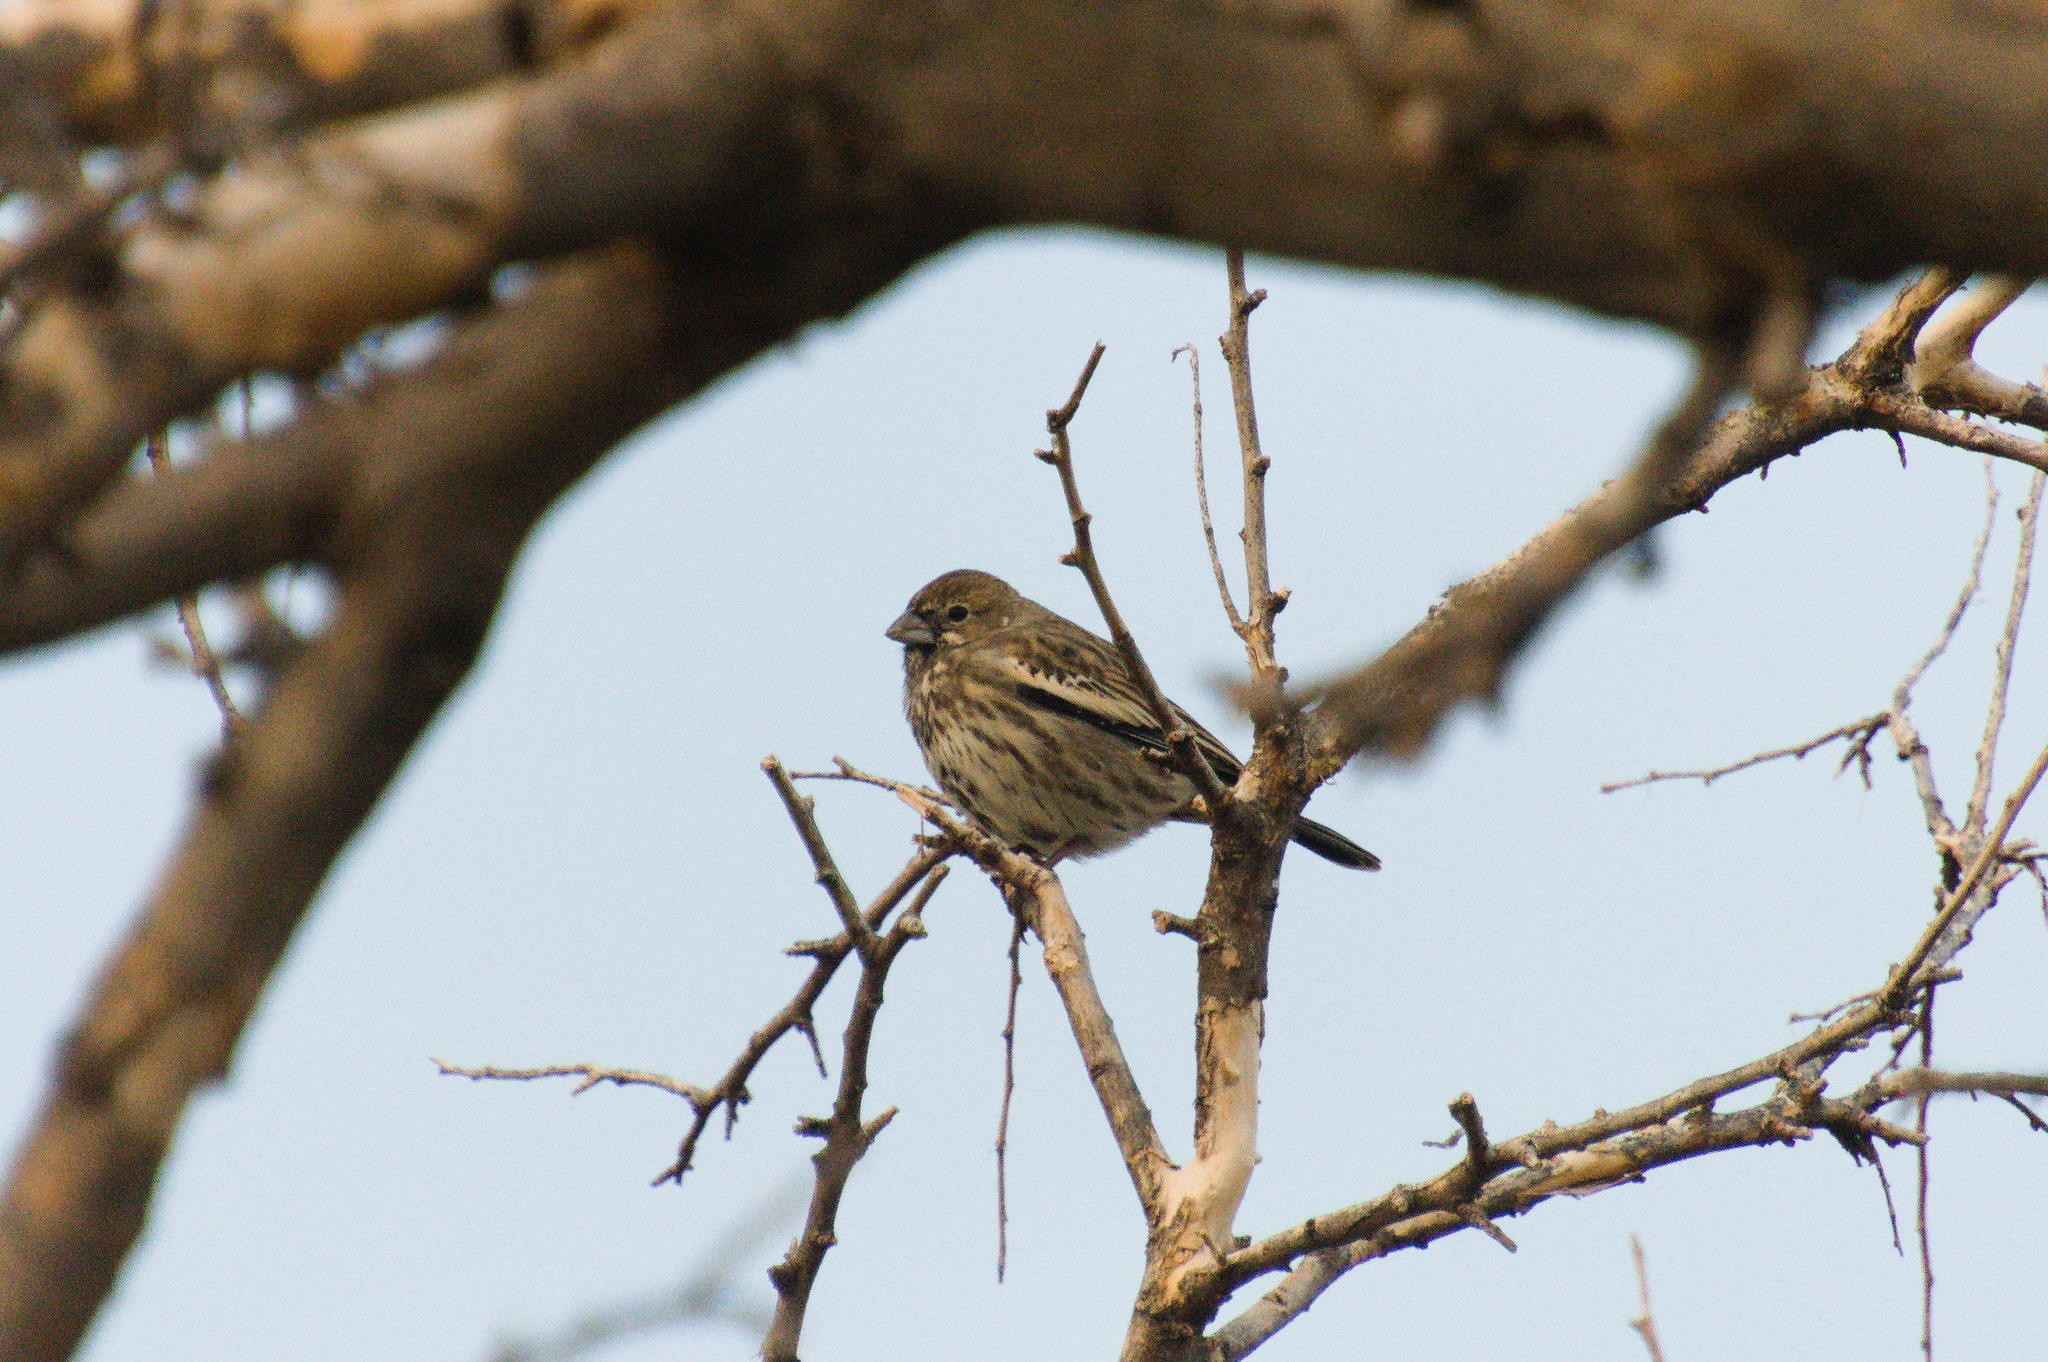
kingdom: Animalia
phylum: Chordata
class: Aves
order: Passeriformes
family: Passerellidae
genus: Calamospiza
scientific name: Calamospiza melanocorys
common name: Lark bunting
